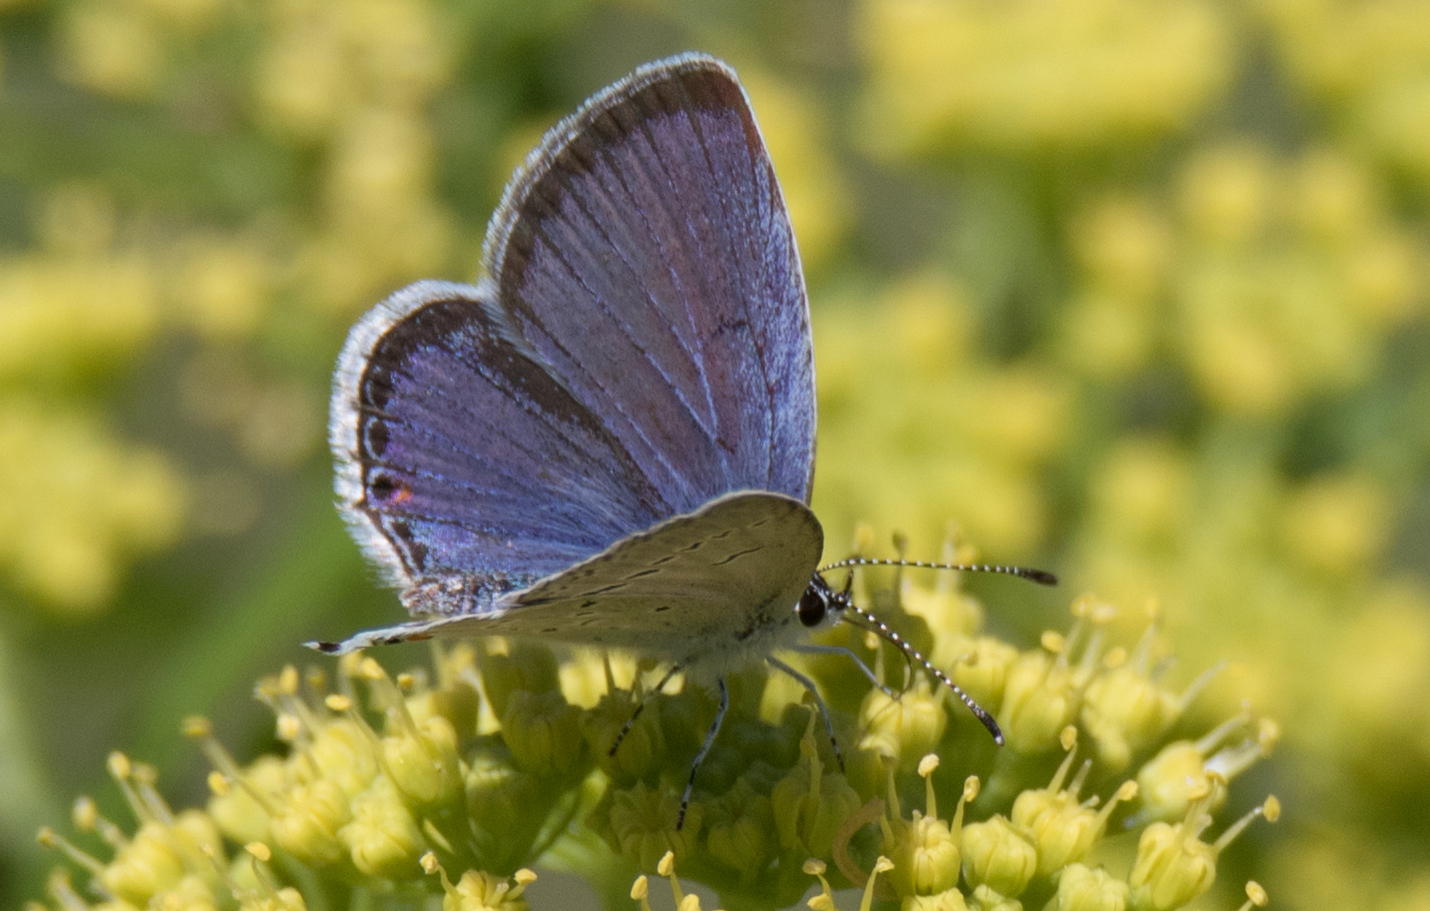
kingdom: Animalia
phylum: Arthropoda
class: Insecta
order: Lepidoptera
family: Lycaenidae
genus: Elkalyce
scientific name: Elkalyce comyntas
